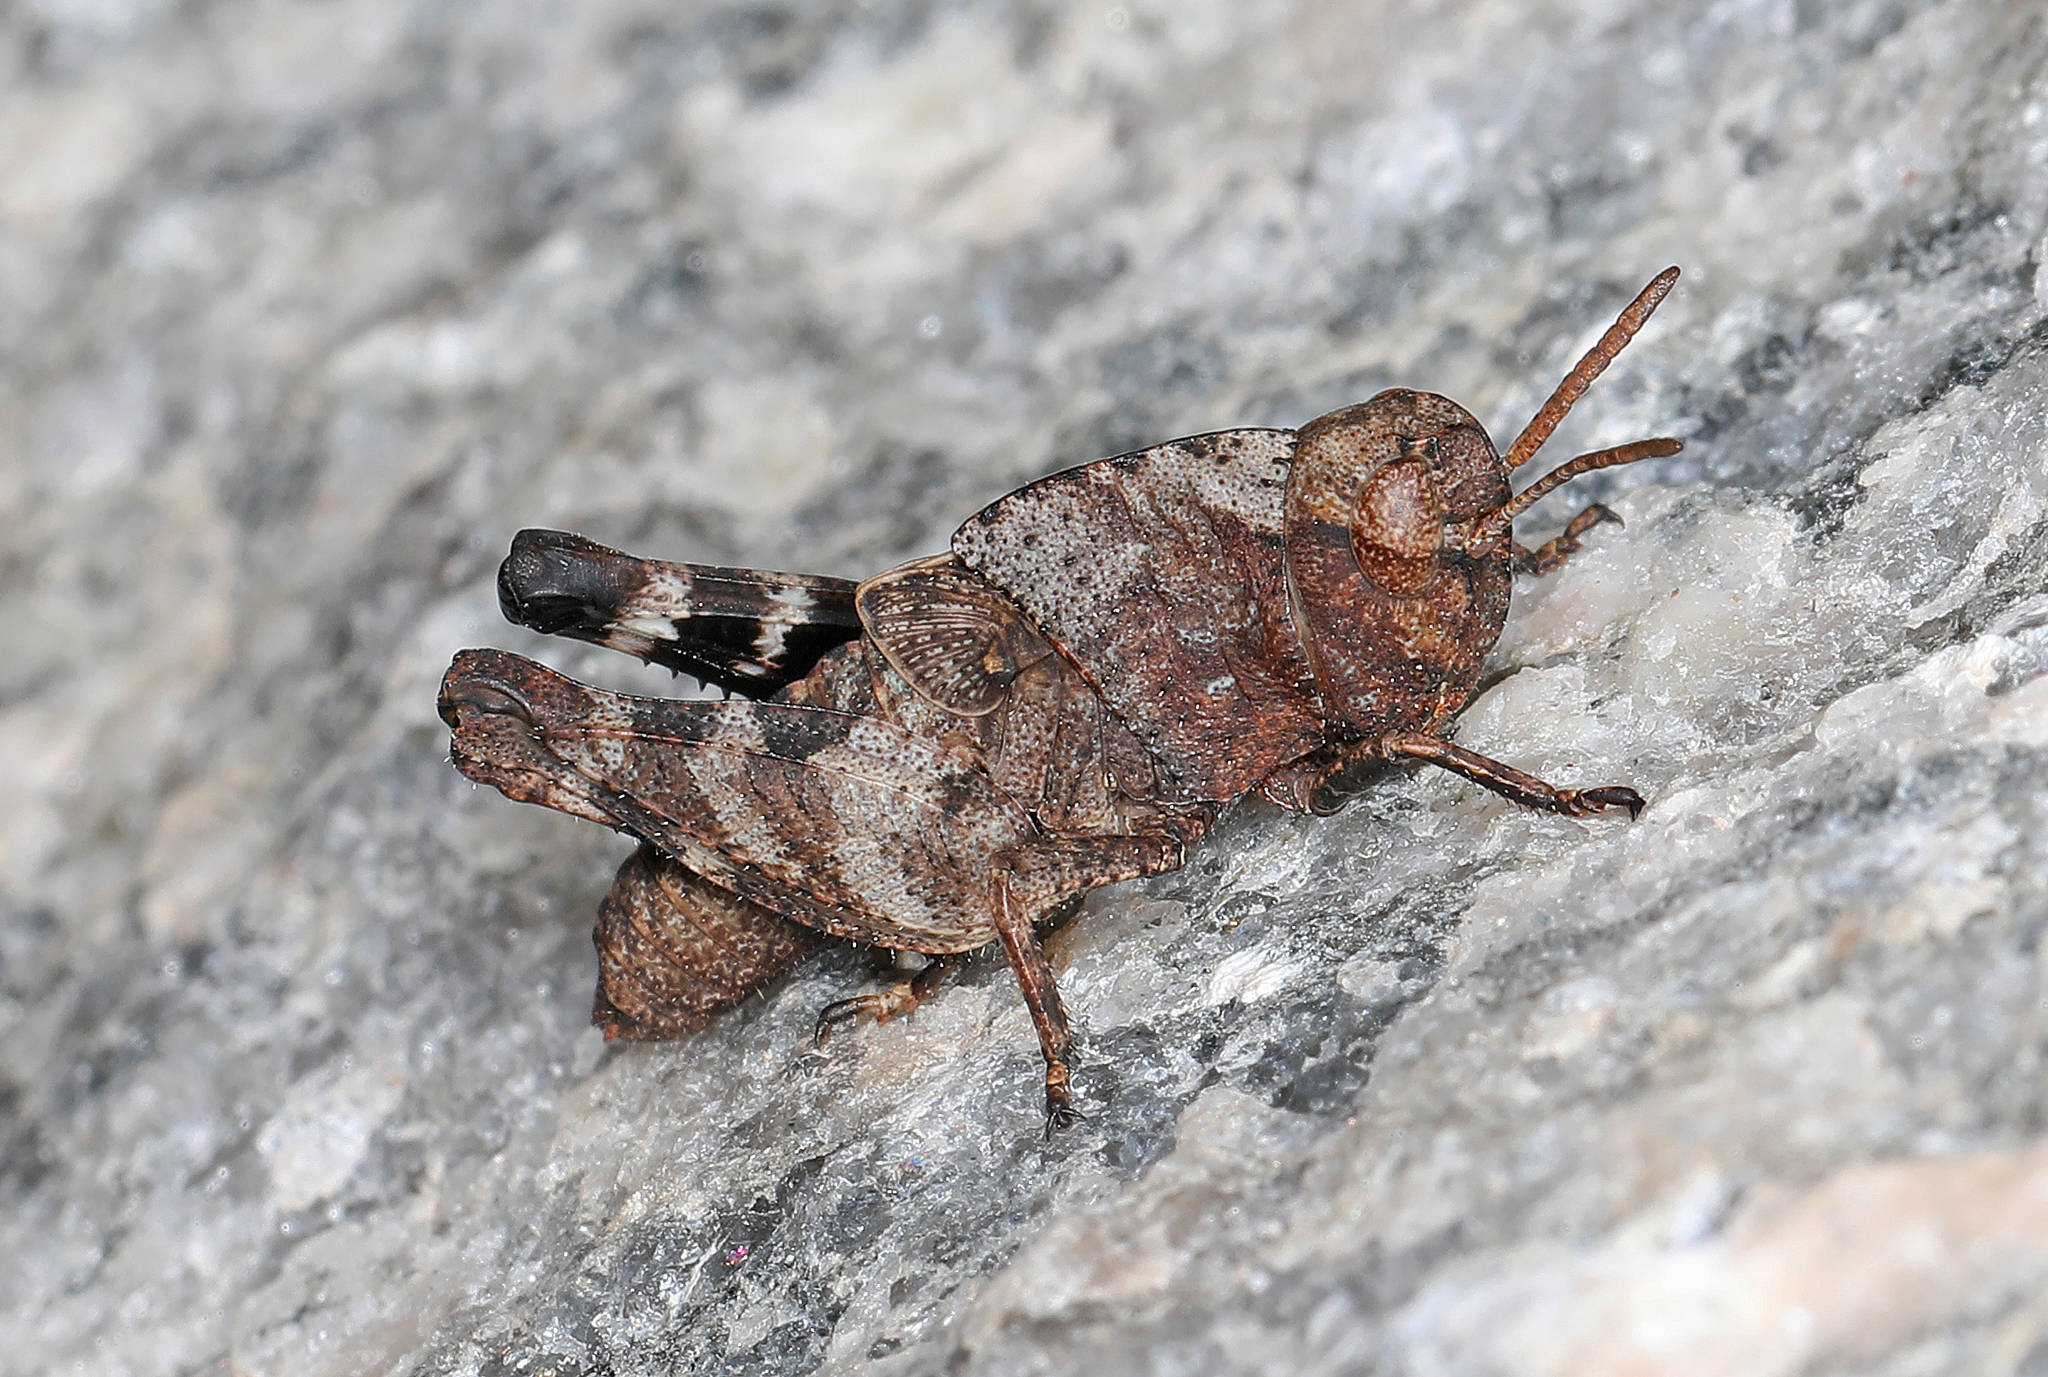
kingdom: Animalia
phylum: Arthropoda
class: Insecta
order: Orthoptera
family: Acrididae
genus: Arphia
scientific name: Arphia sulphurea
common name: Spring yellow-winged locust
